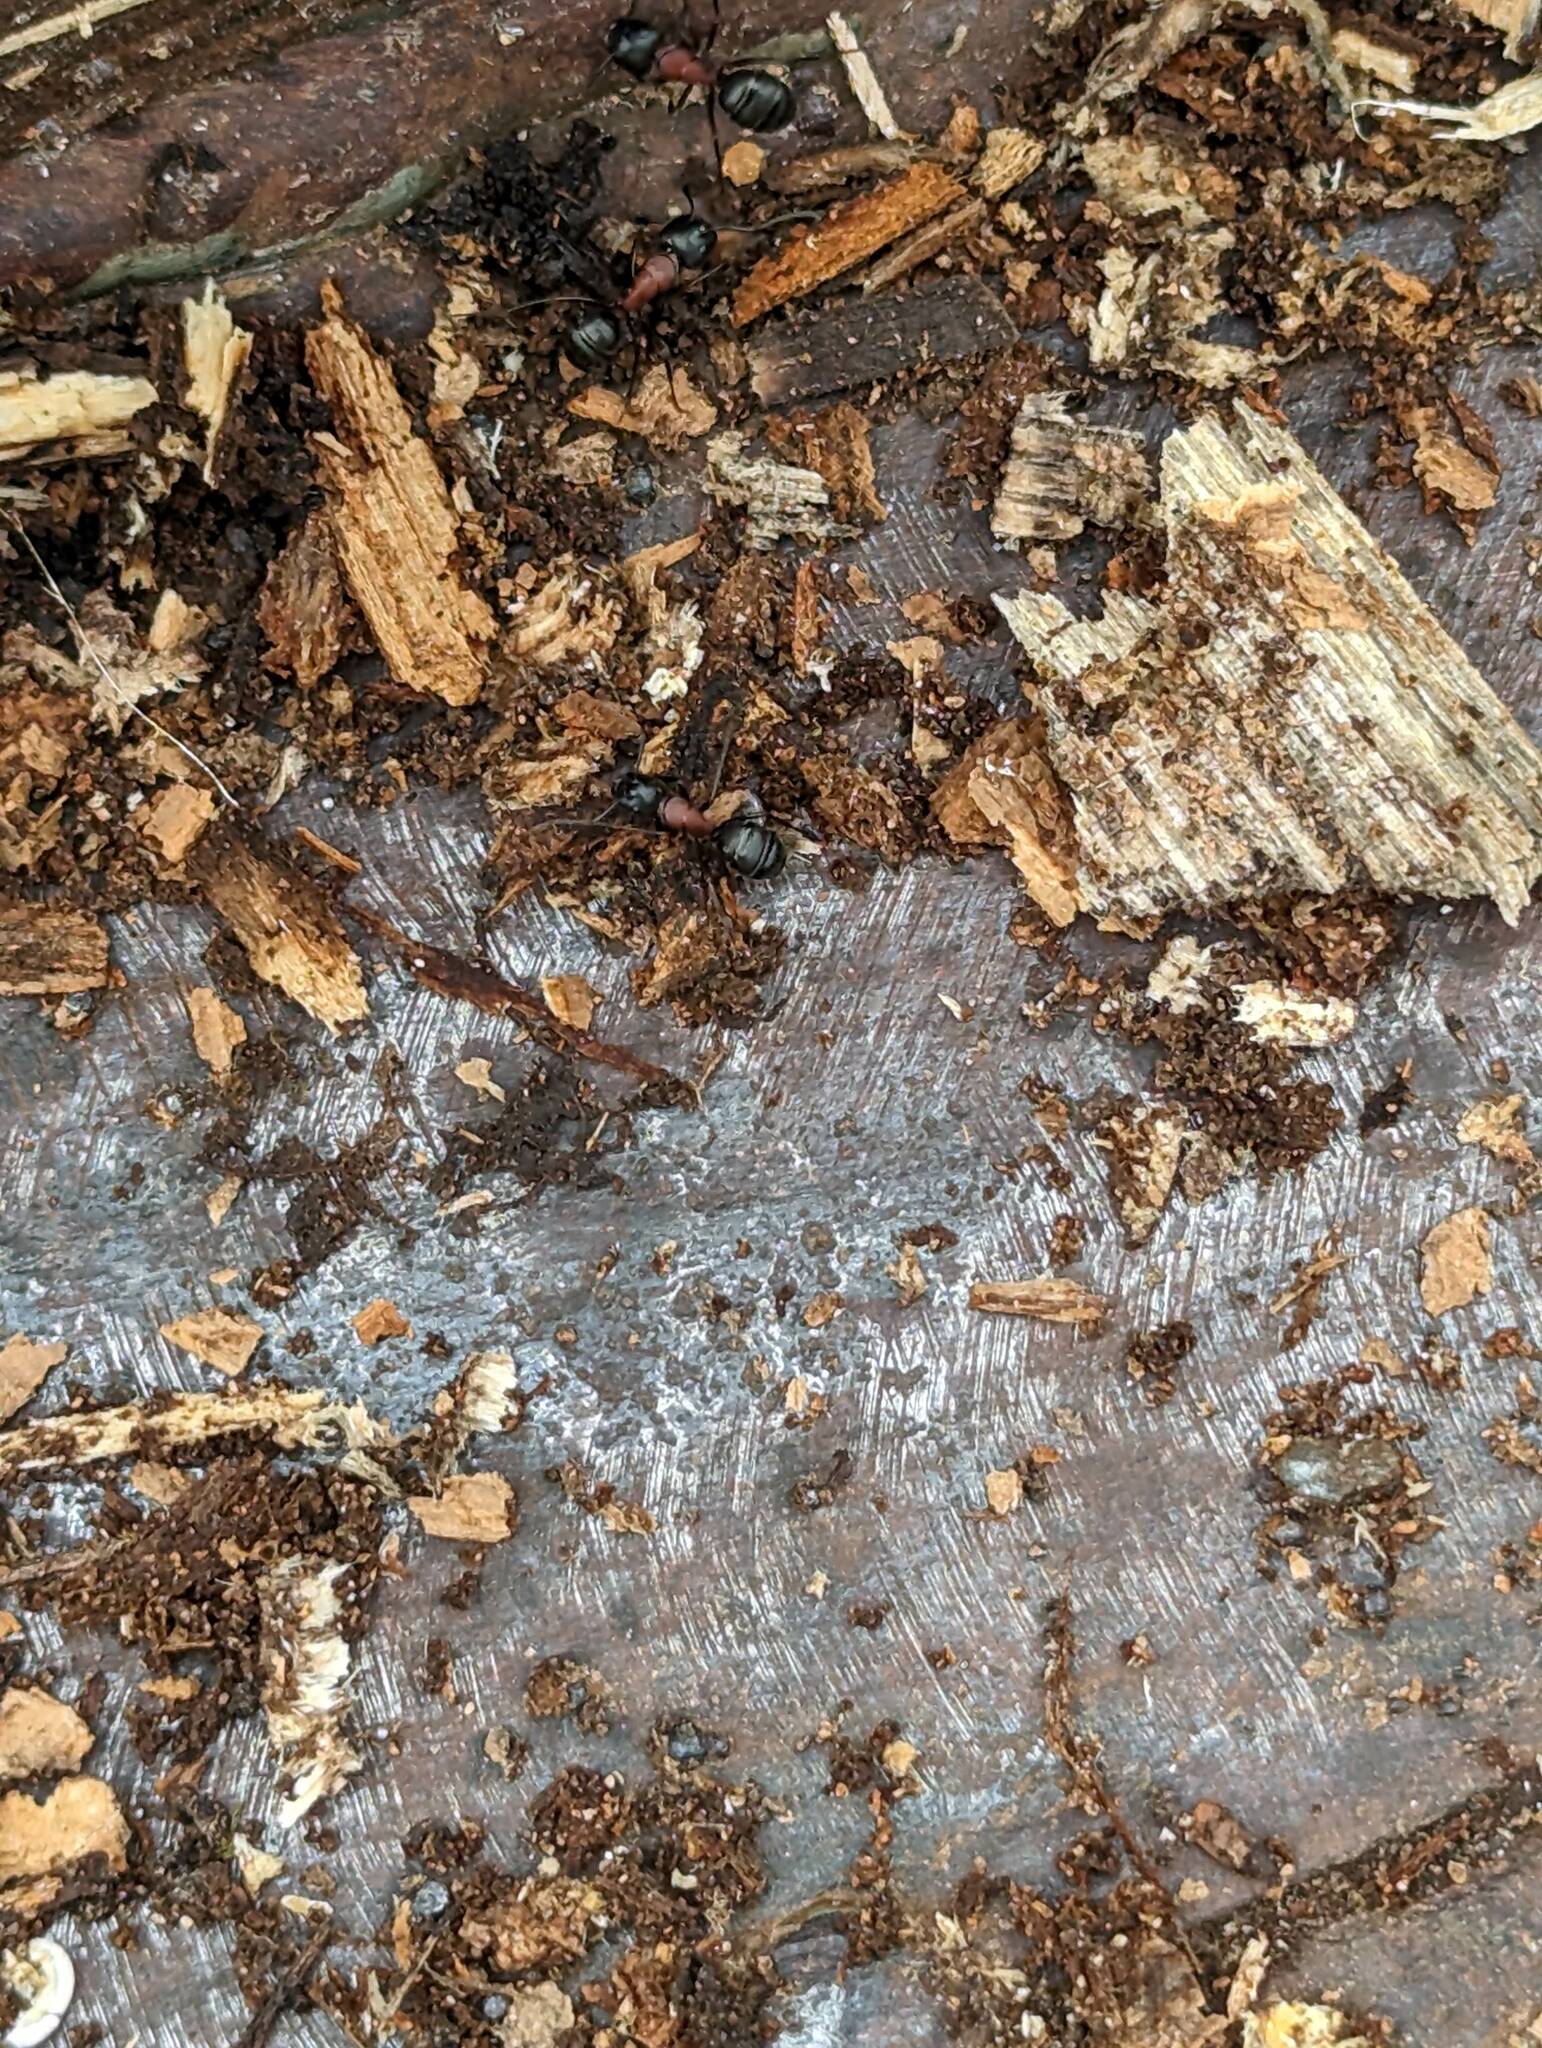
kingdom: Animalia
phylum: Arthropoda
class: Insecta
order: Hymenoptera
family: Formicidae
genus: Camponotus
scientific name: Camponotus novaeboracensis
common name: New york carpenter ant
